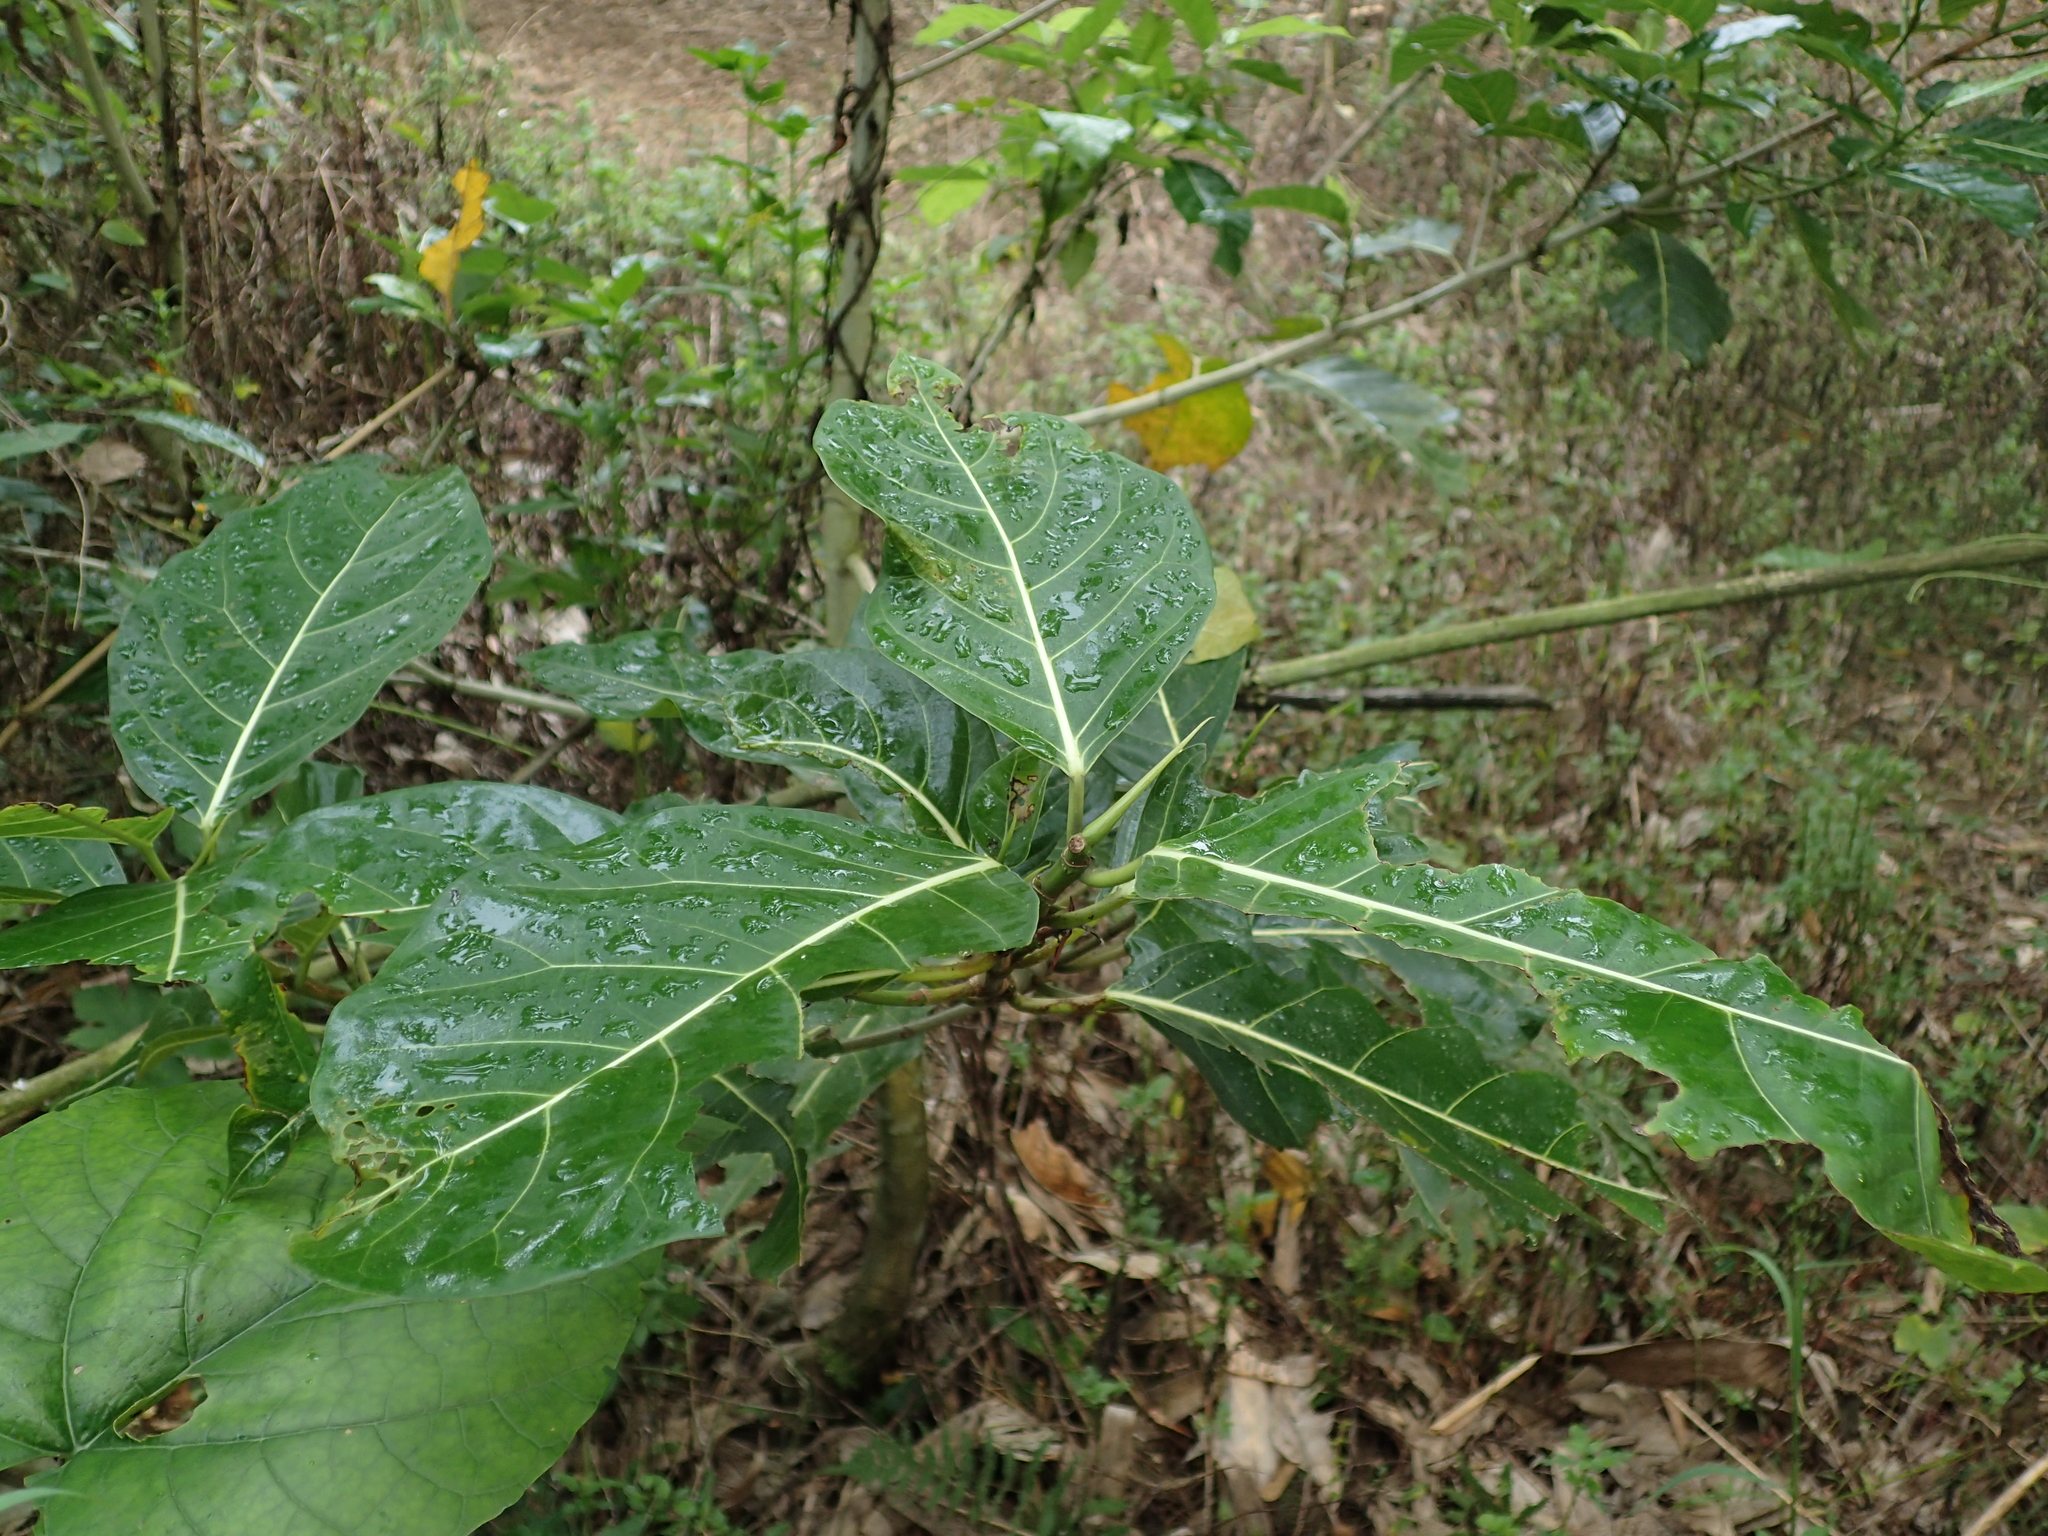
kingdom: Plantae
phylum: Tracheophyta
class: Magnoliopsida
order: Rosales
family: Moraceae
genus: Ficus
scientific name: Ficus septica
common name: Septic fig
